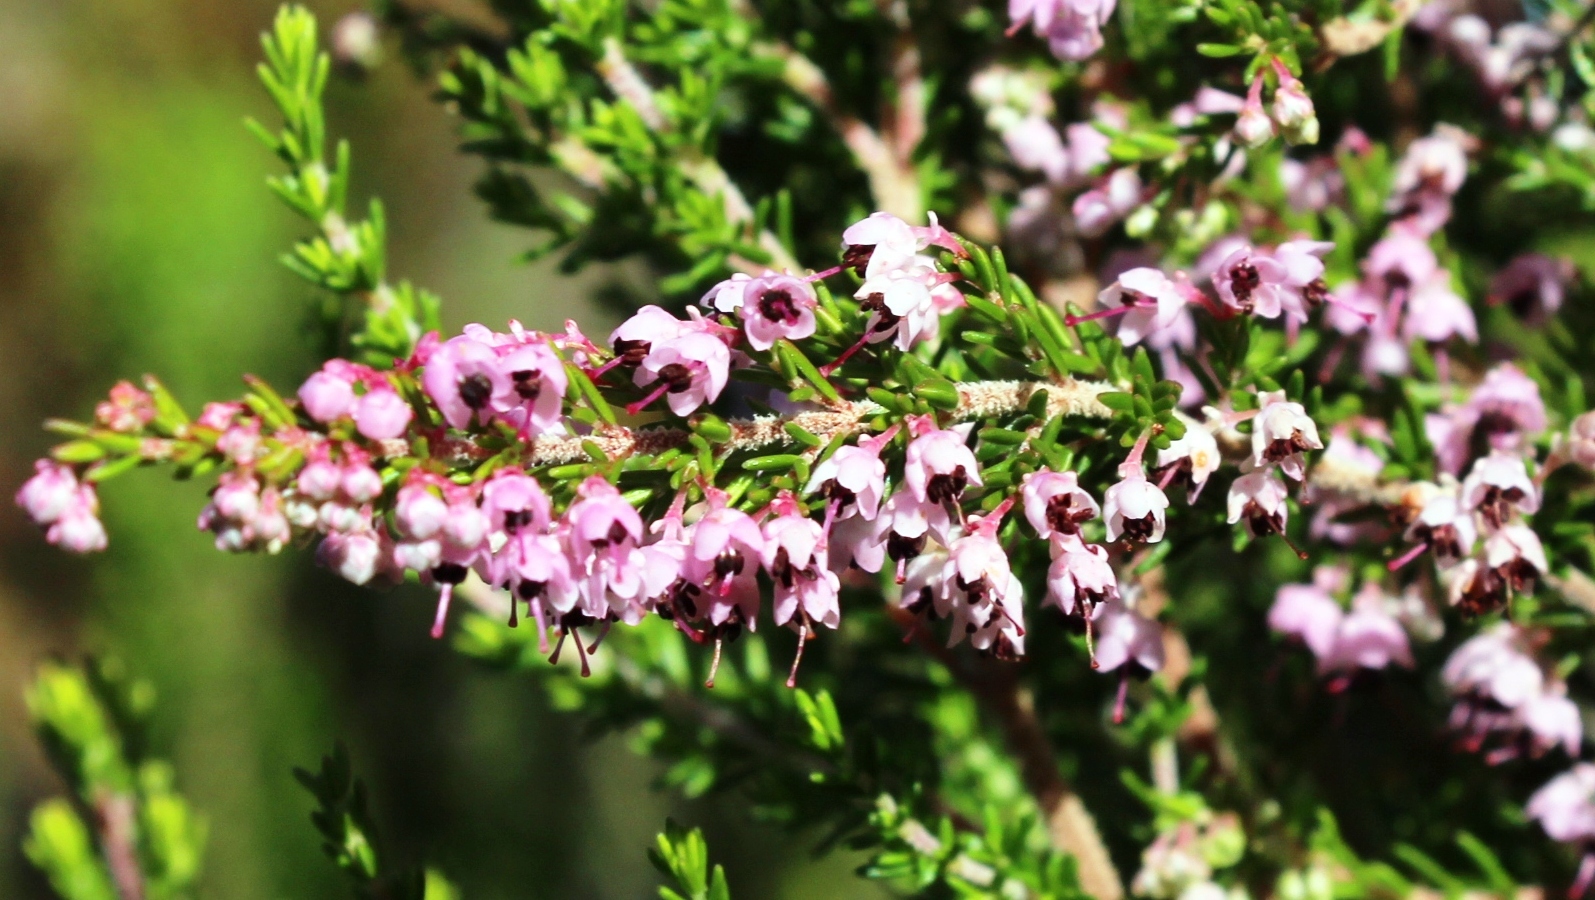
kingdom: Plantae
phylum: Tracheophyta
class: Magnoliopsida
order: Ericales
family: Ericaceae
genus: Erica
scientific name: Erica sparsa
